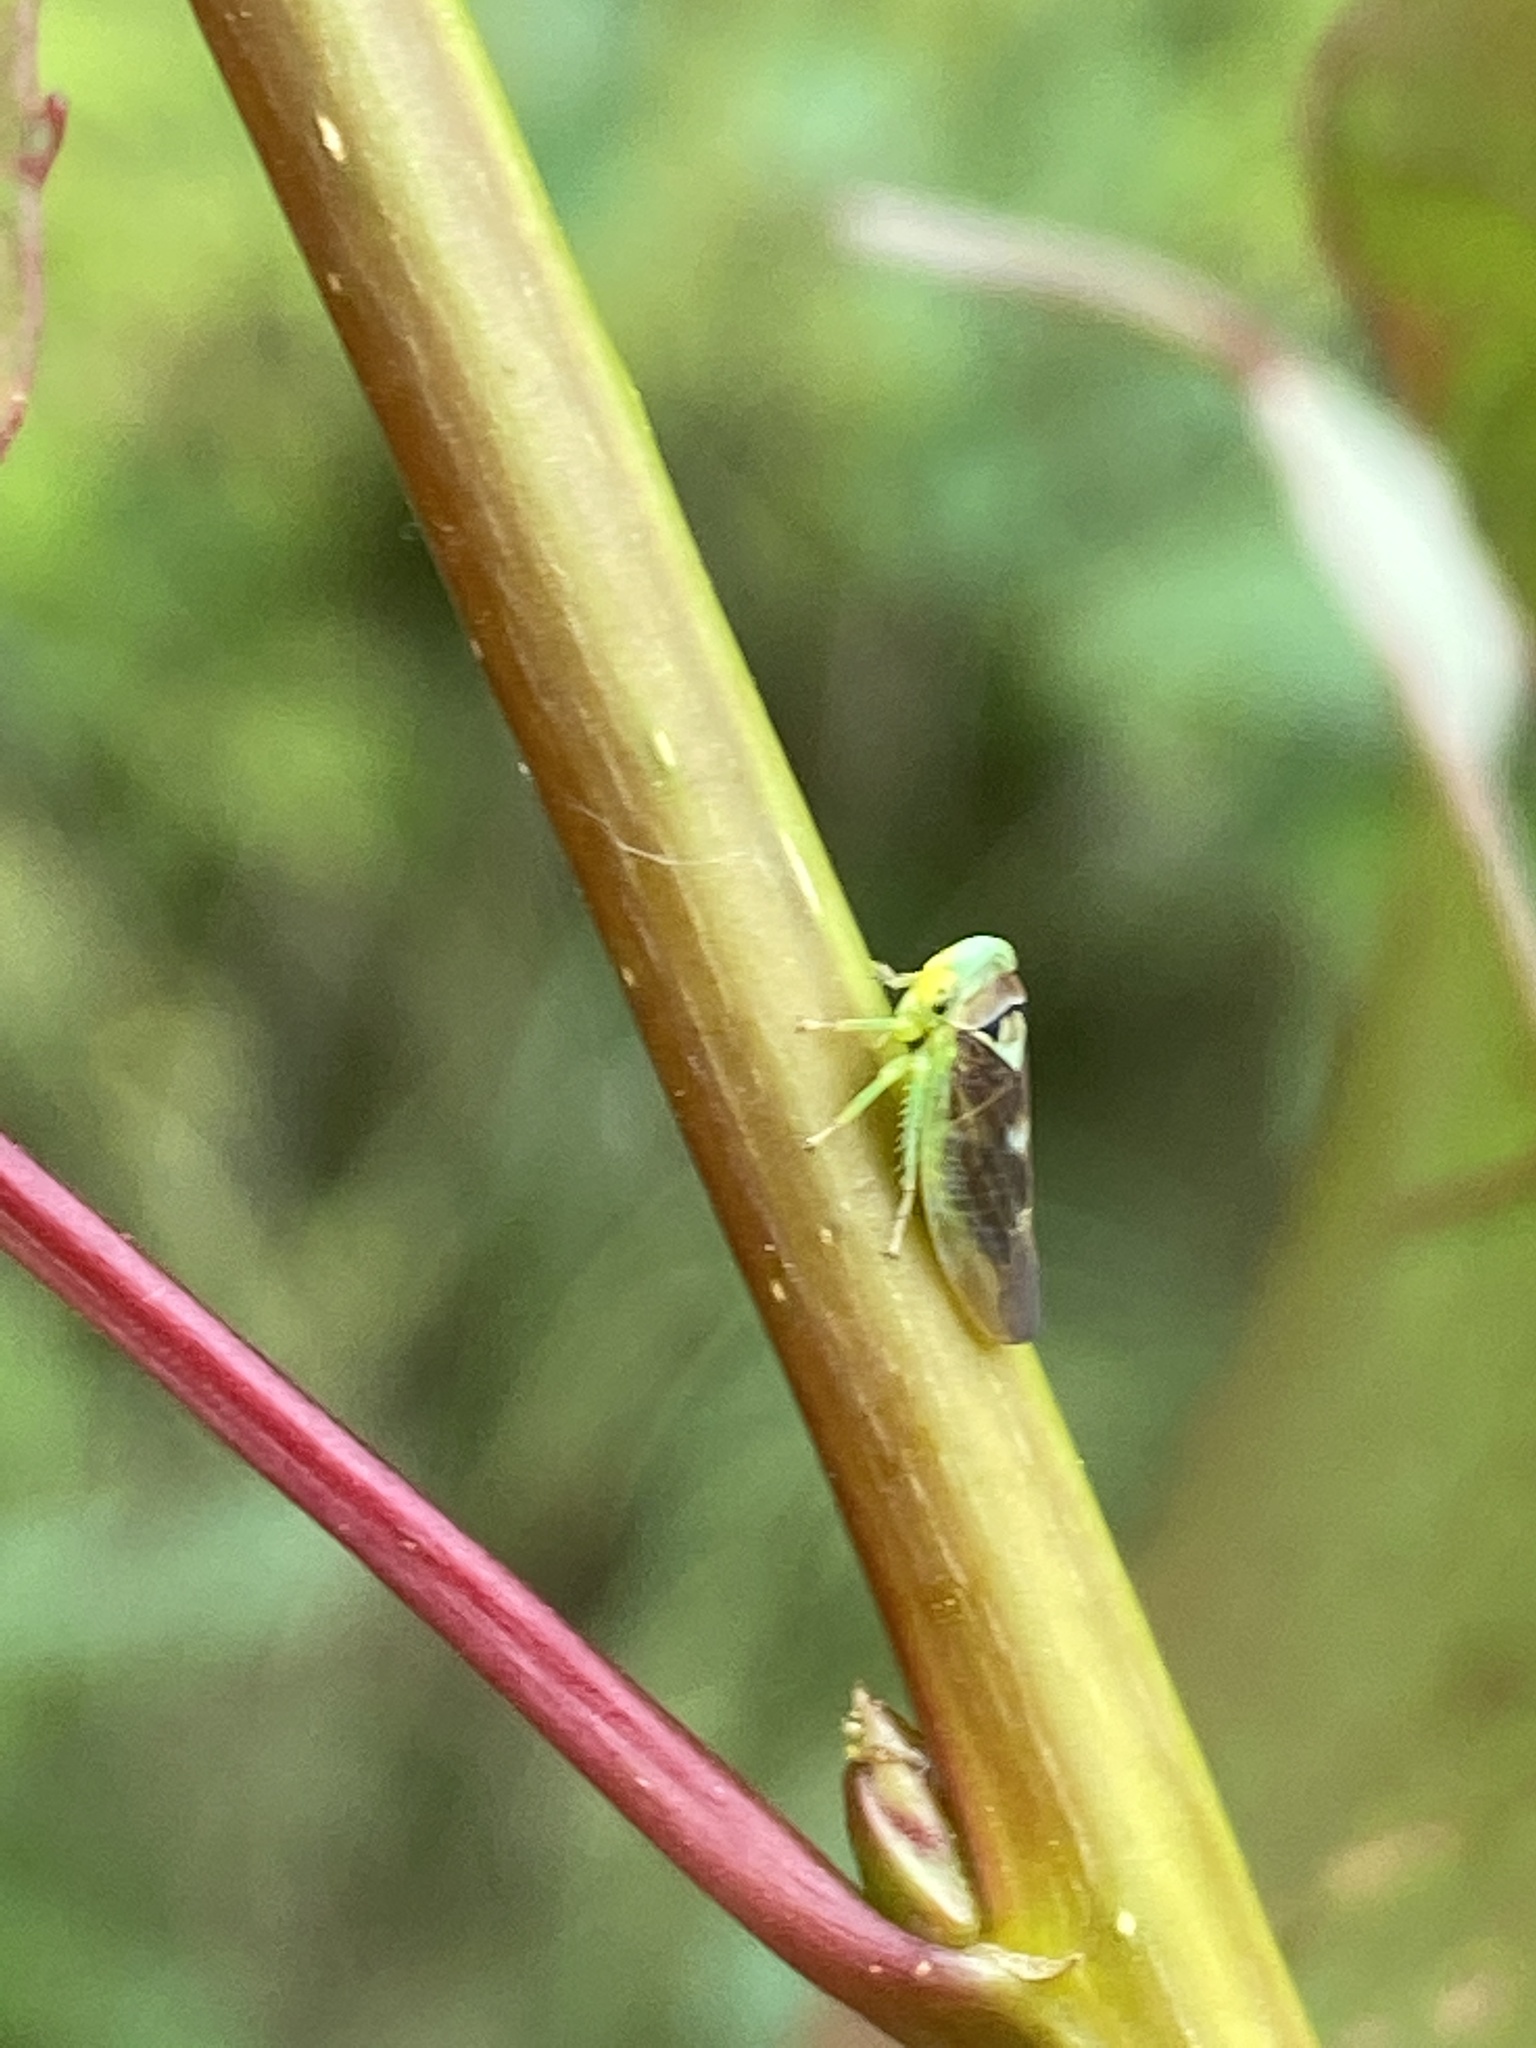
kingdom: Animalia
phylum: Arthropoda
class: Insecta
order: Hemiptera
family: Cicadellidae
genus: Populicerus
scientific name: Populicerus populi
